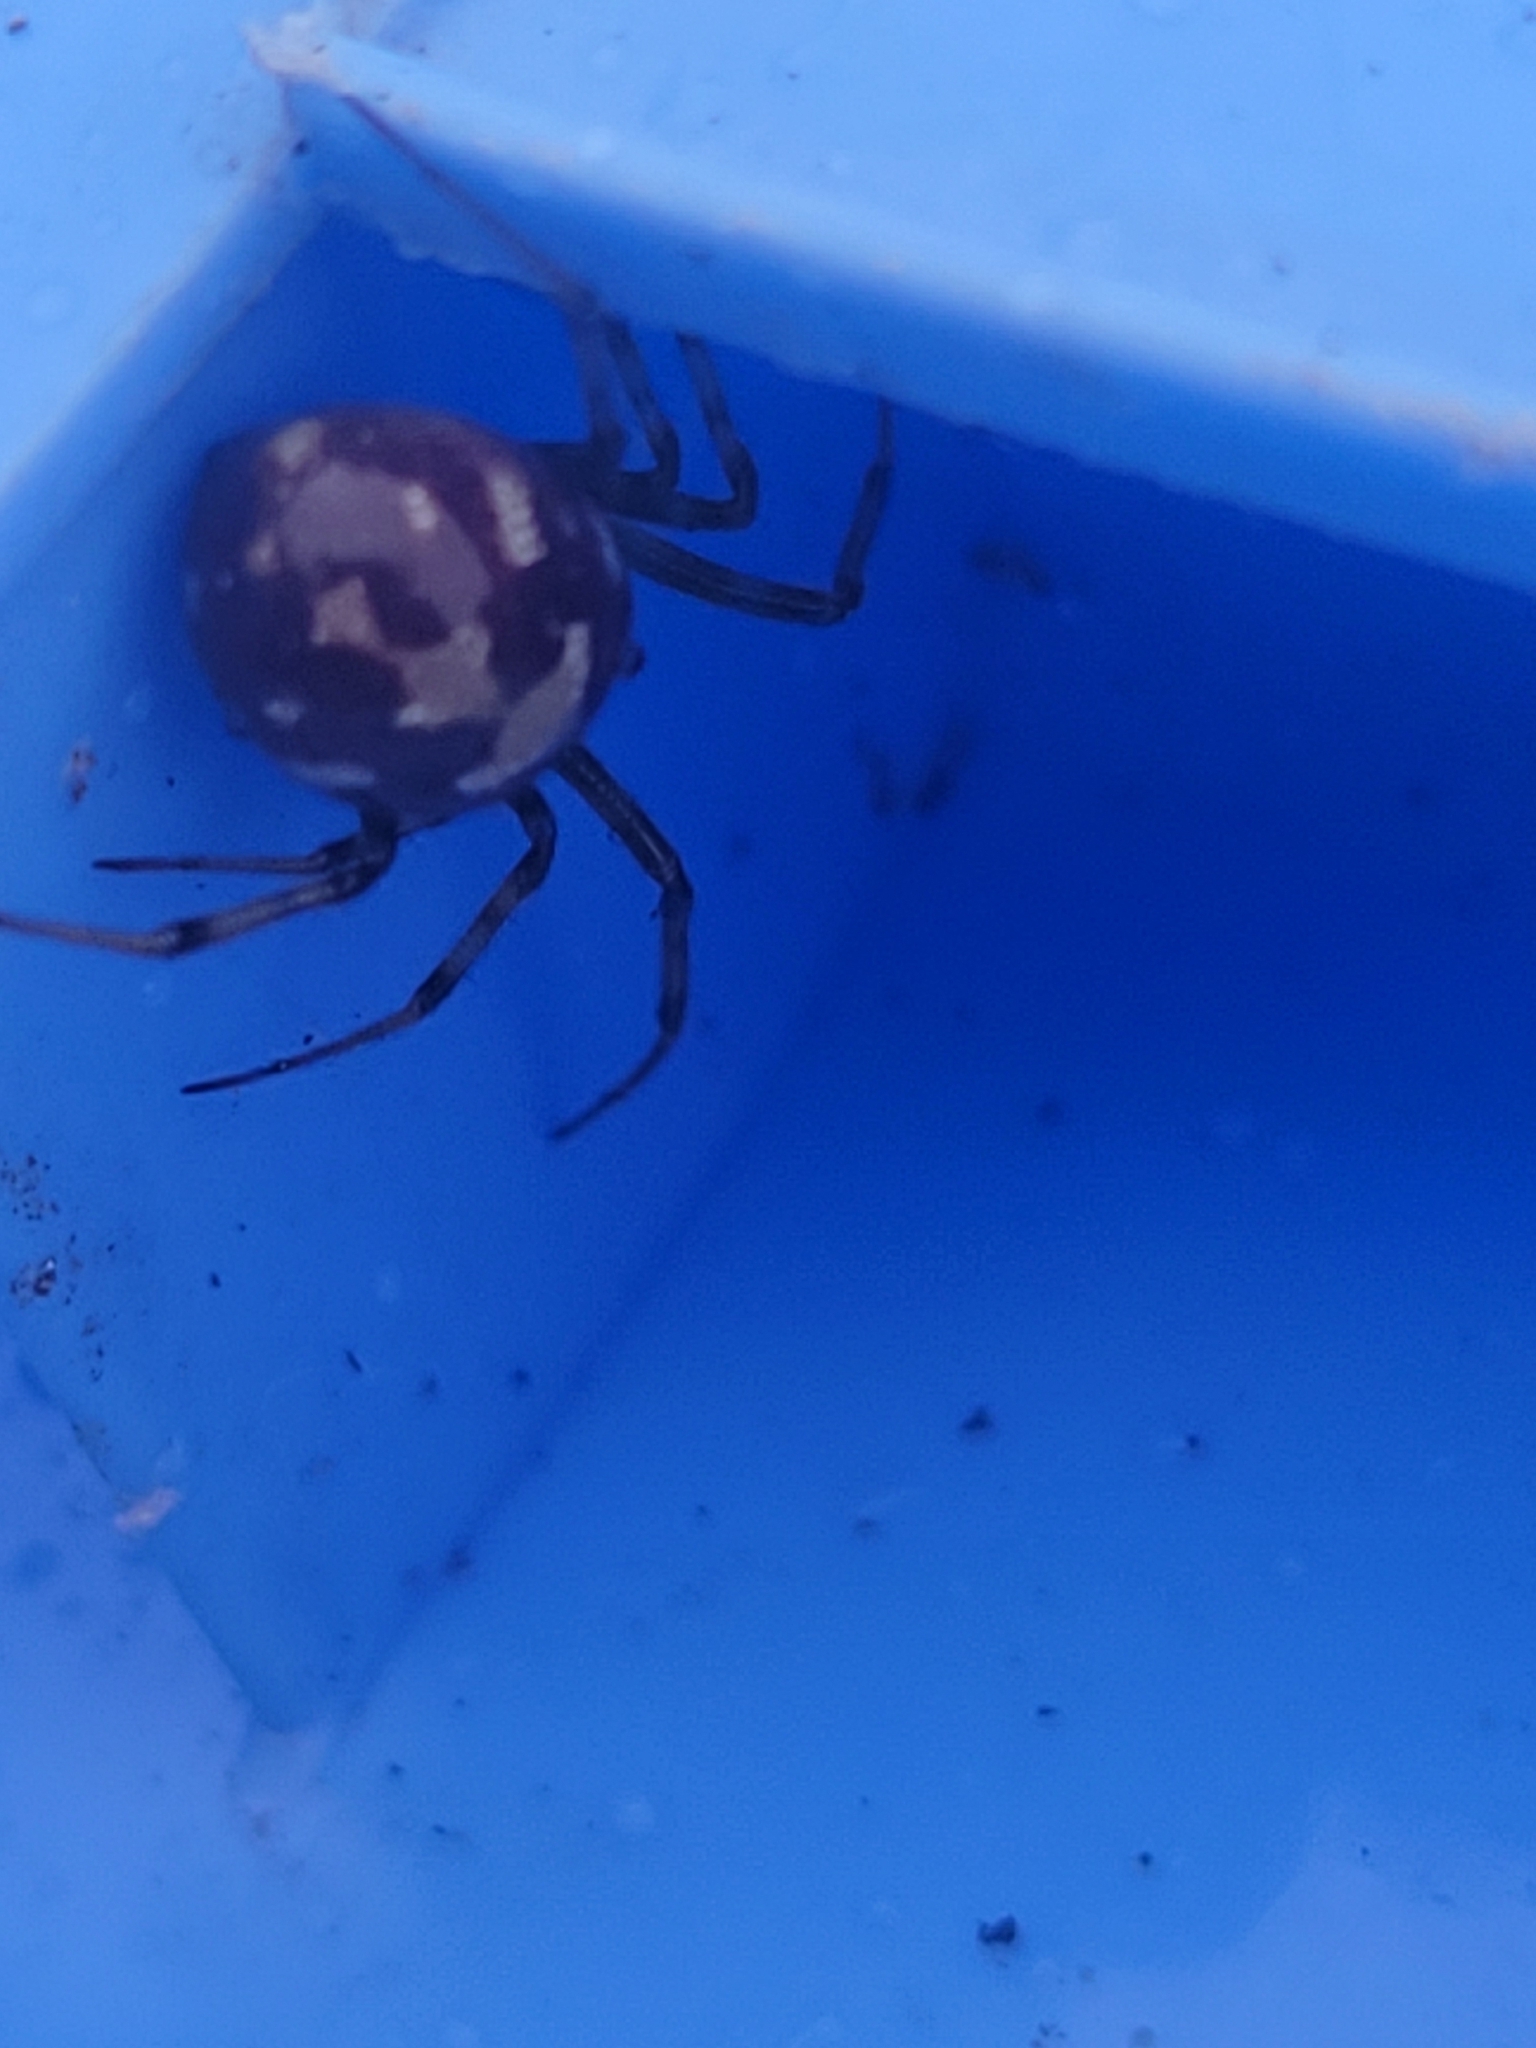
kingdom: Animalia
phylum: Arthropoda
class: Arachnida
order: Araneae
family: Theridiidae
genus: Steatoda
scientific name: Steatoda triangulosa
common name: Triangulate bud spider
